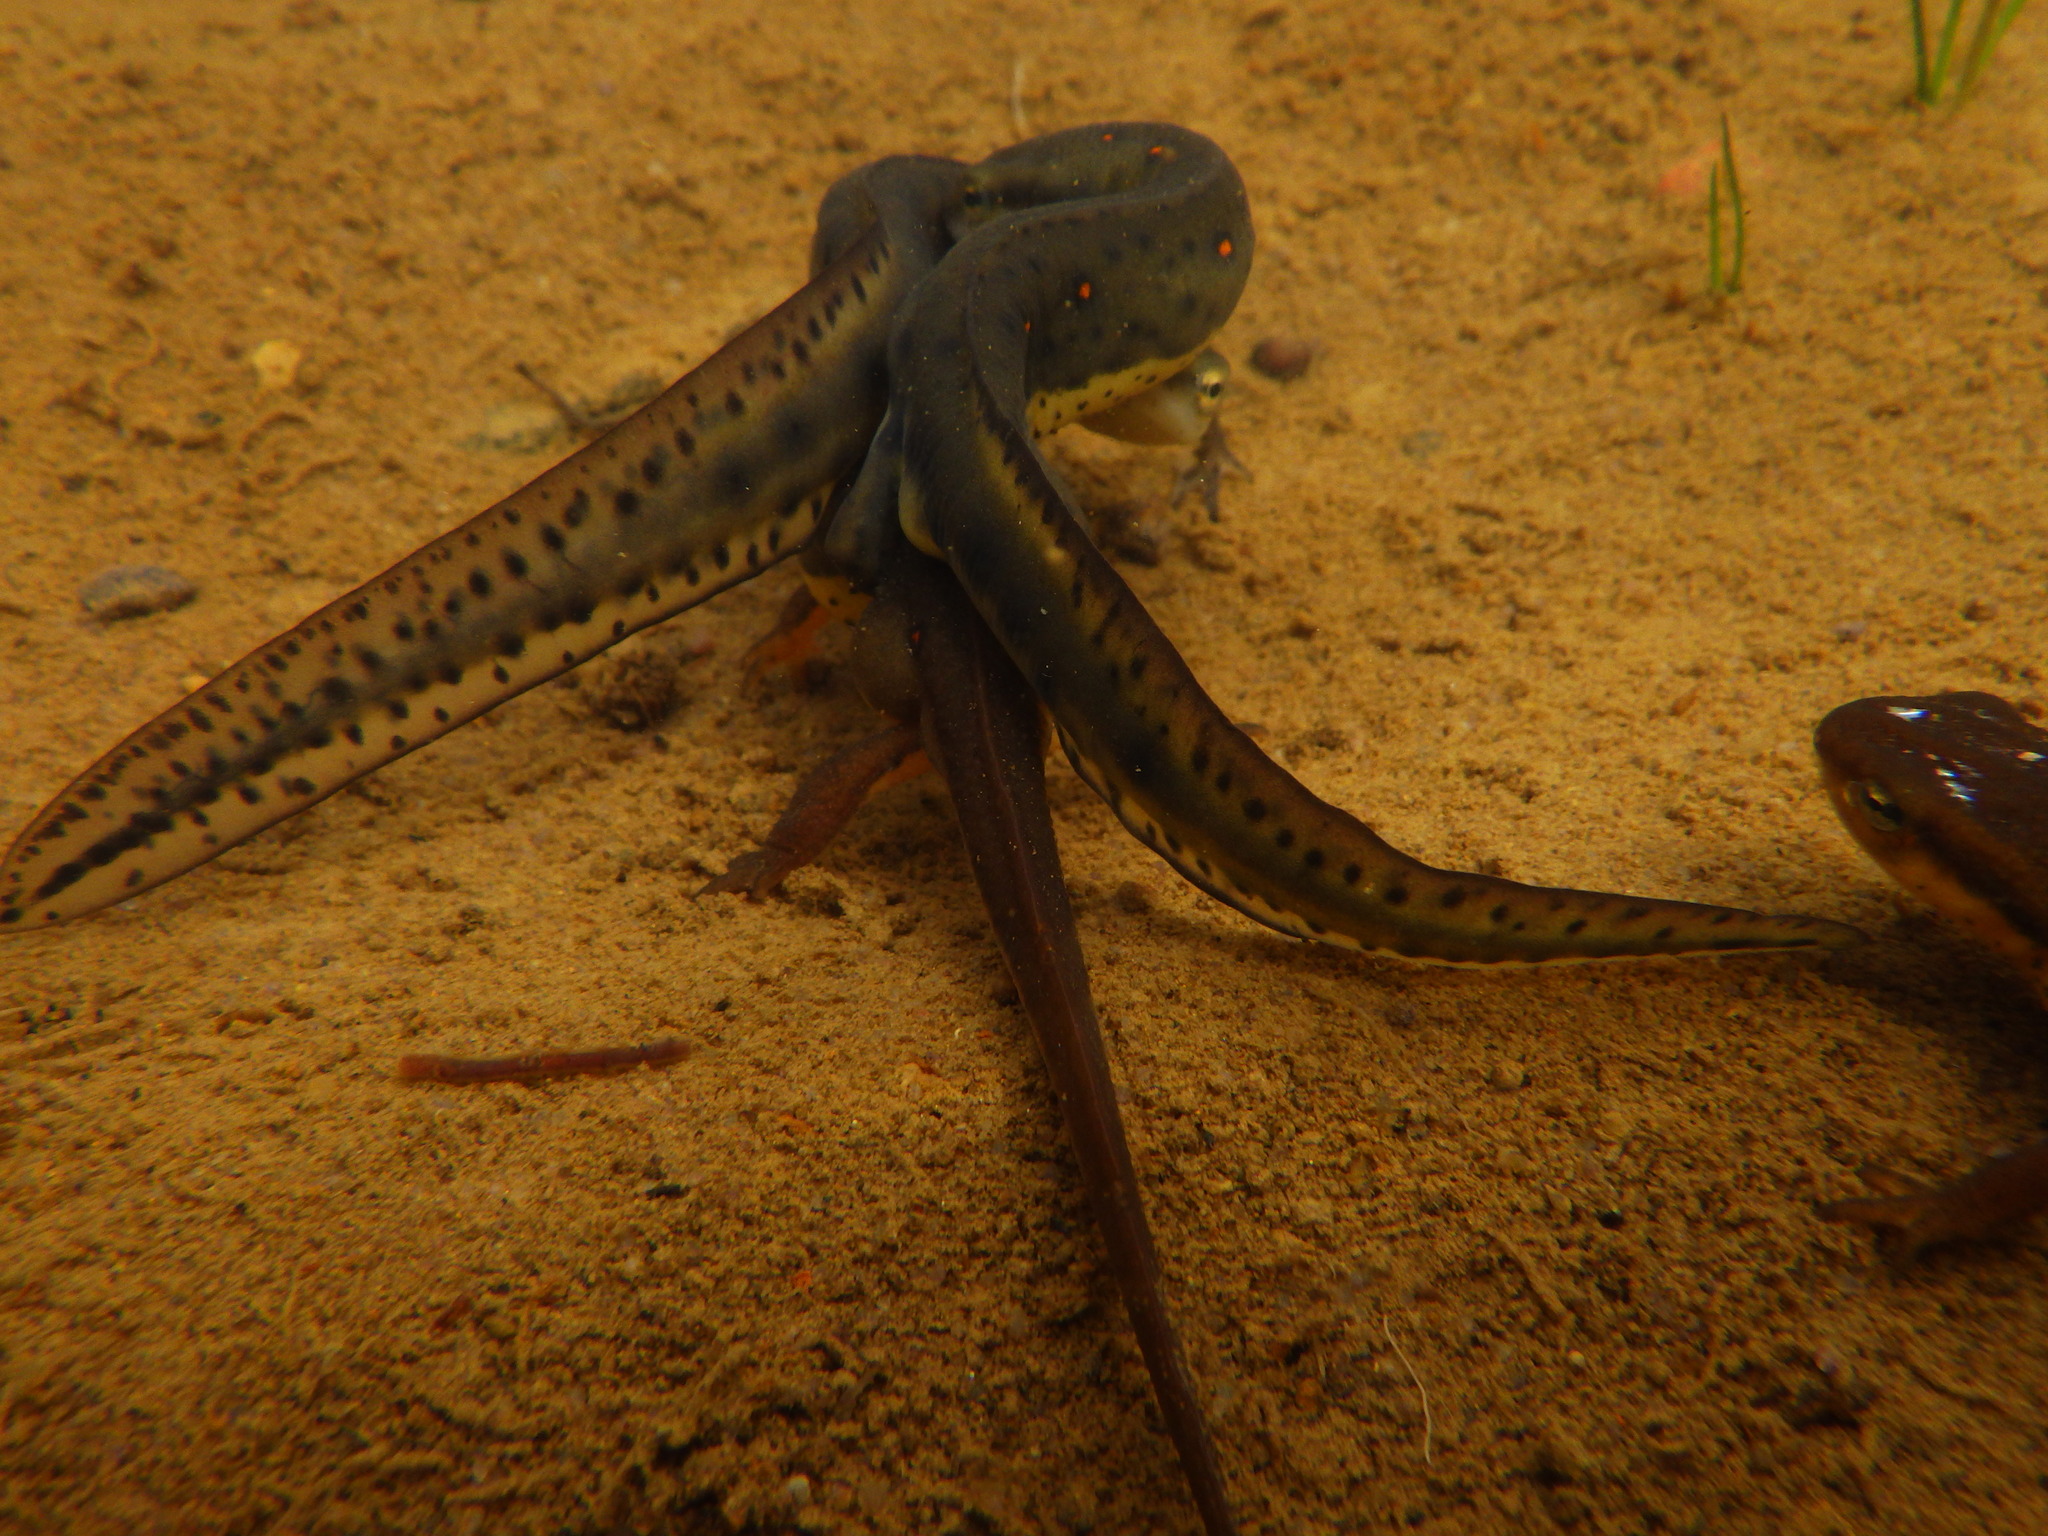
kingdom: Animalia
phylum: Chordata
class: Amphibia
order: Caudata
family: Salamandridae
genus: Notophthalmus
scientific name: Notophthalmus viridescens
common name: Eastern newt
